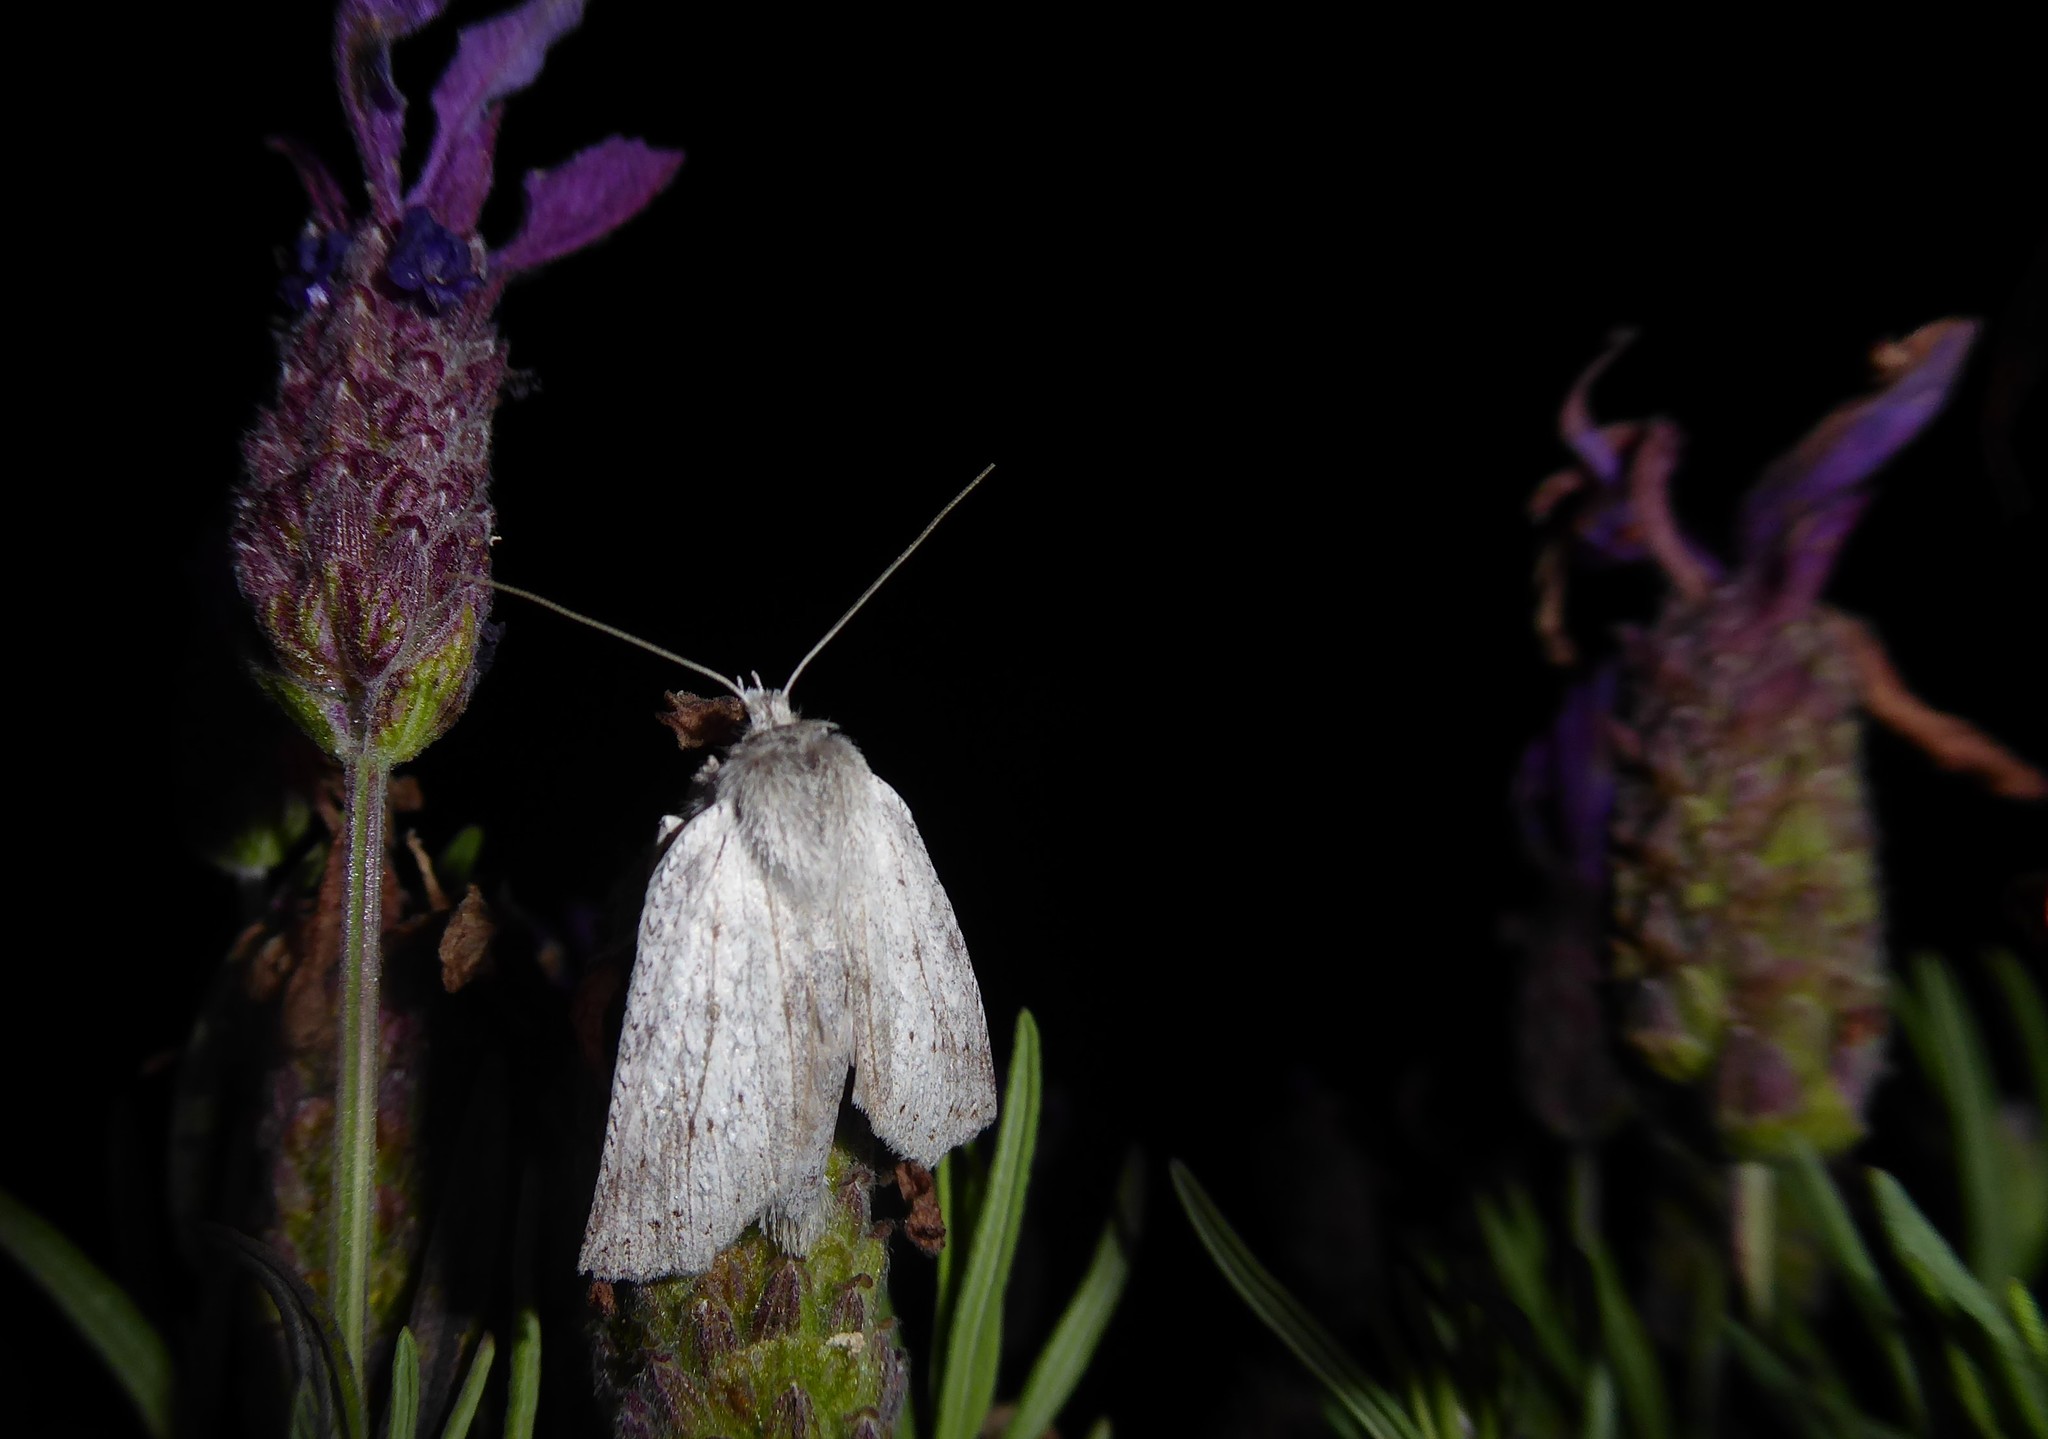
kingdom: Animalia
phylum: Arthropoda
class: Insecta
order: Lepidoptera
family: Geometridae
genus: Declana
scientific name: Declana leptomera
